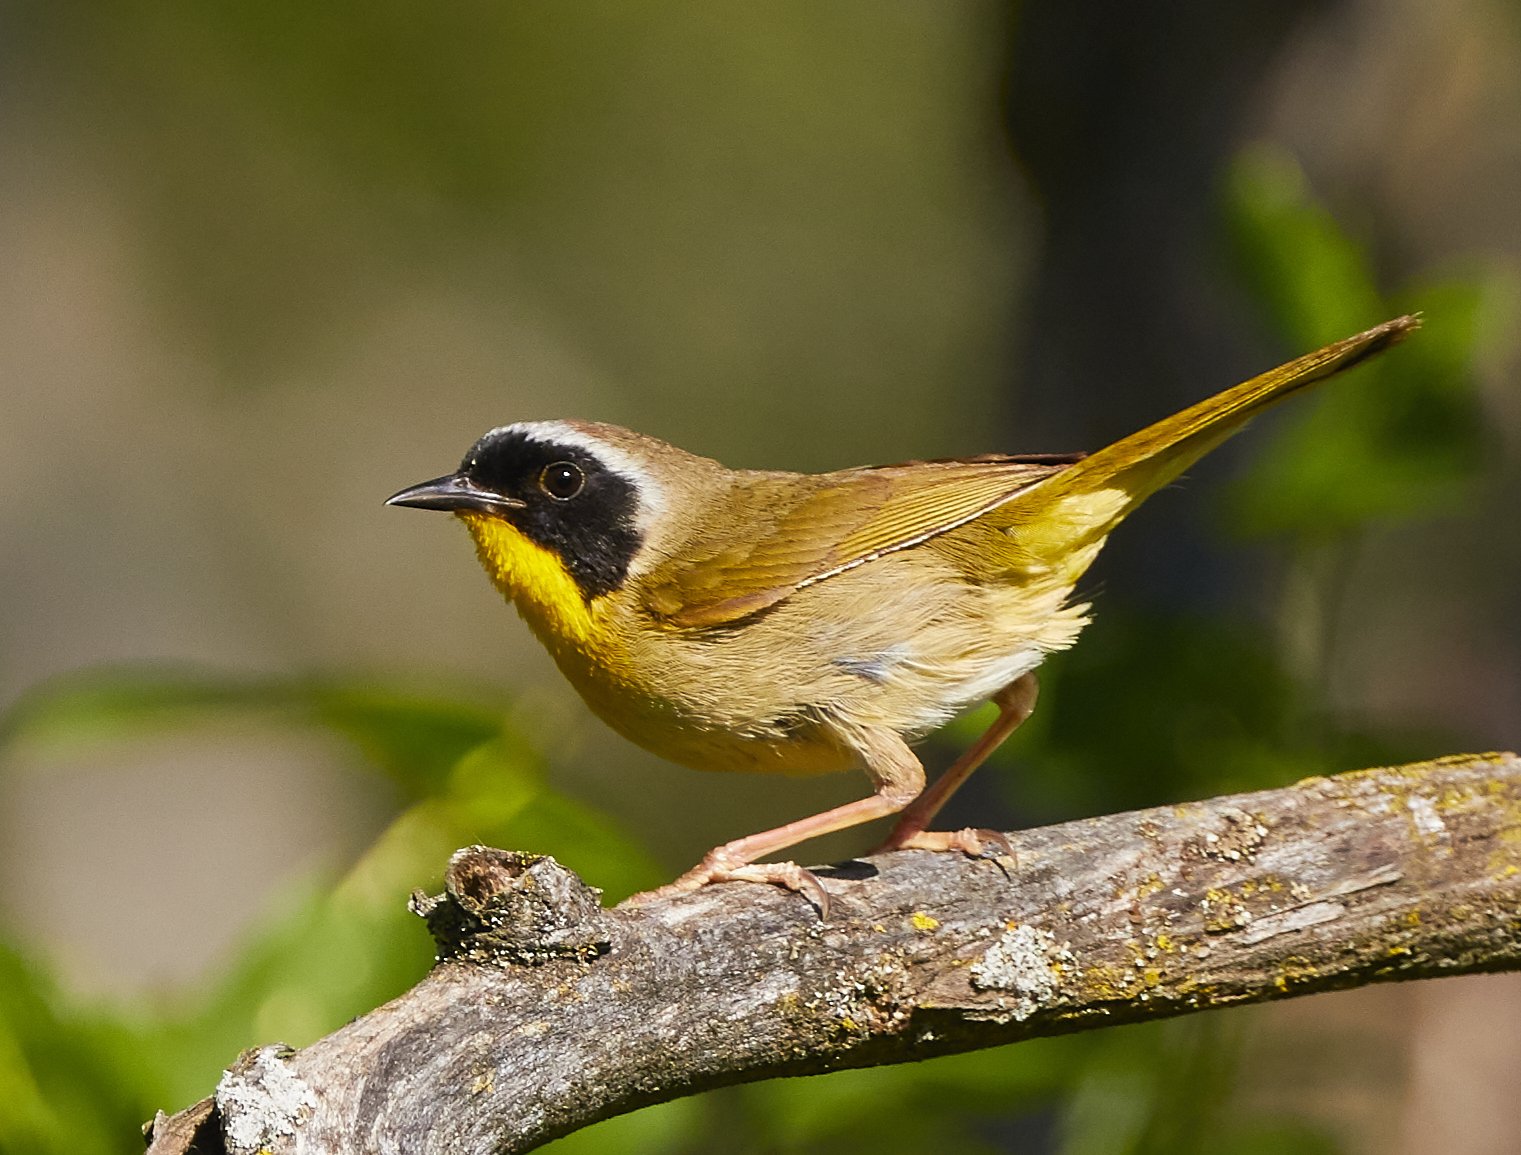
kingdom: Animalia
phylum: Chordata
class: Aves
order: Passeriformes
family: Parulidae
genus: Geothlypis
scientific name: Geothlypis trichas
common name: Common yellowthroat
